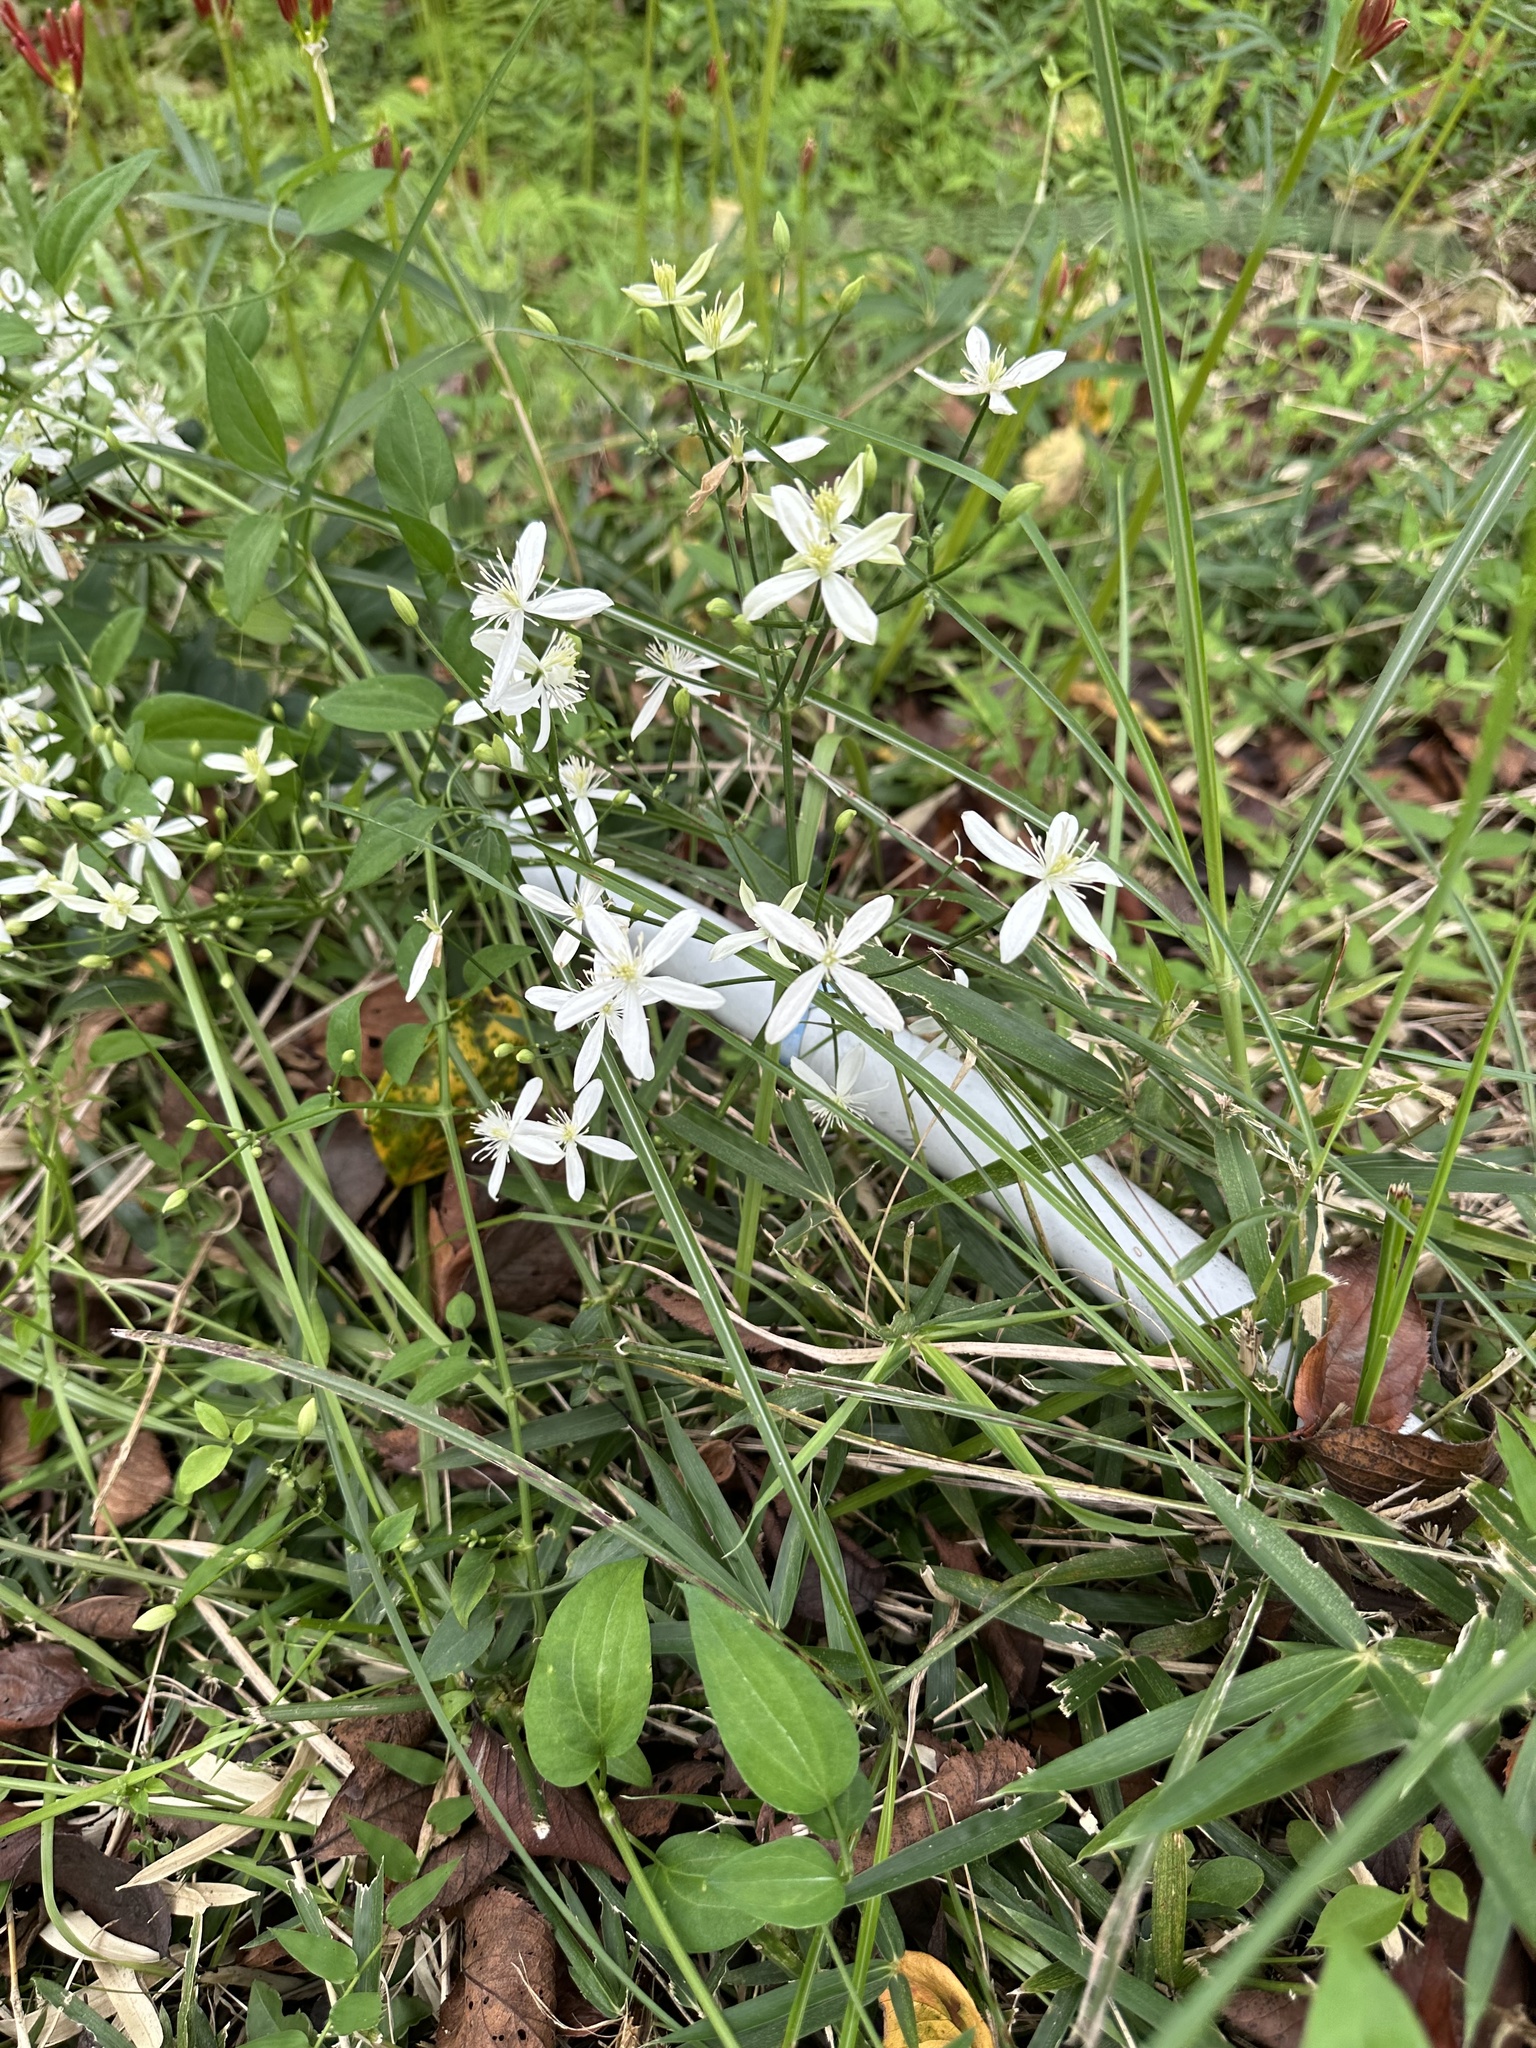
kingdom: Plantae
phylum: Tracheophyta
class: Magnoliopsida
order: Ranunculales
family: Ranunculaceae
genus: Clematis
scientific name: Clematis terniflora
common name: Sweet autumn clematis
